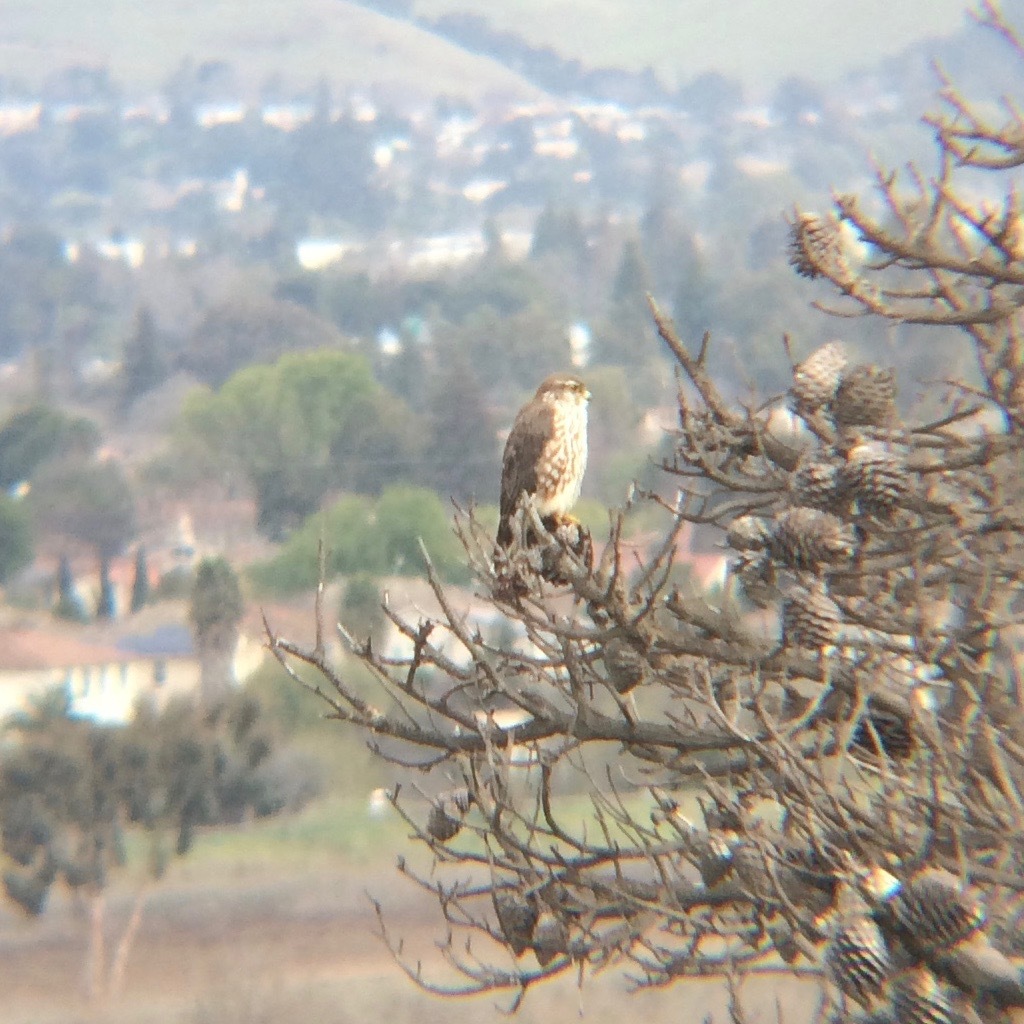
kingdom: Animalia
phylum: Chordata
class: Aves
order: Falconiformes
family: Falconidae
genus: Falco
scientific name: Falco columbarius
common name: Merlin
